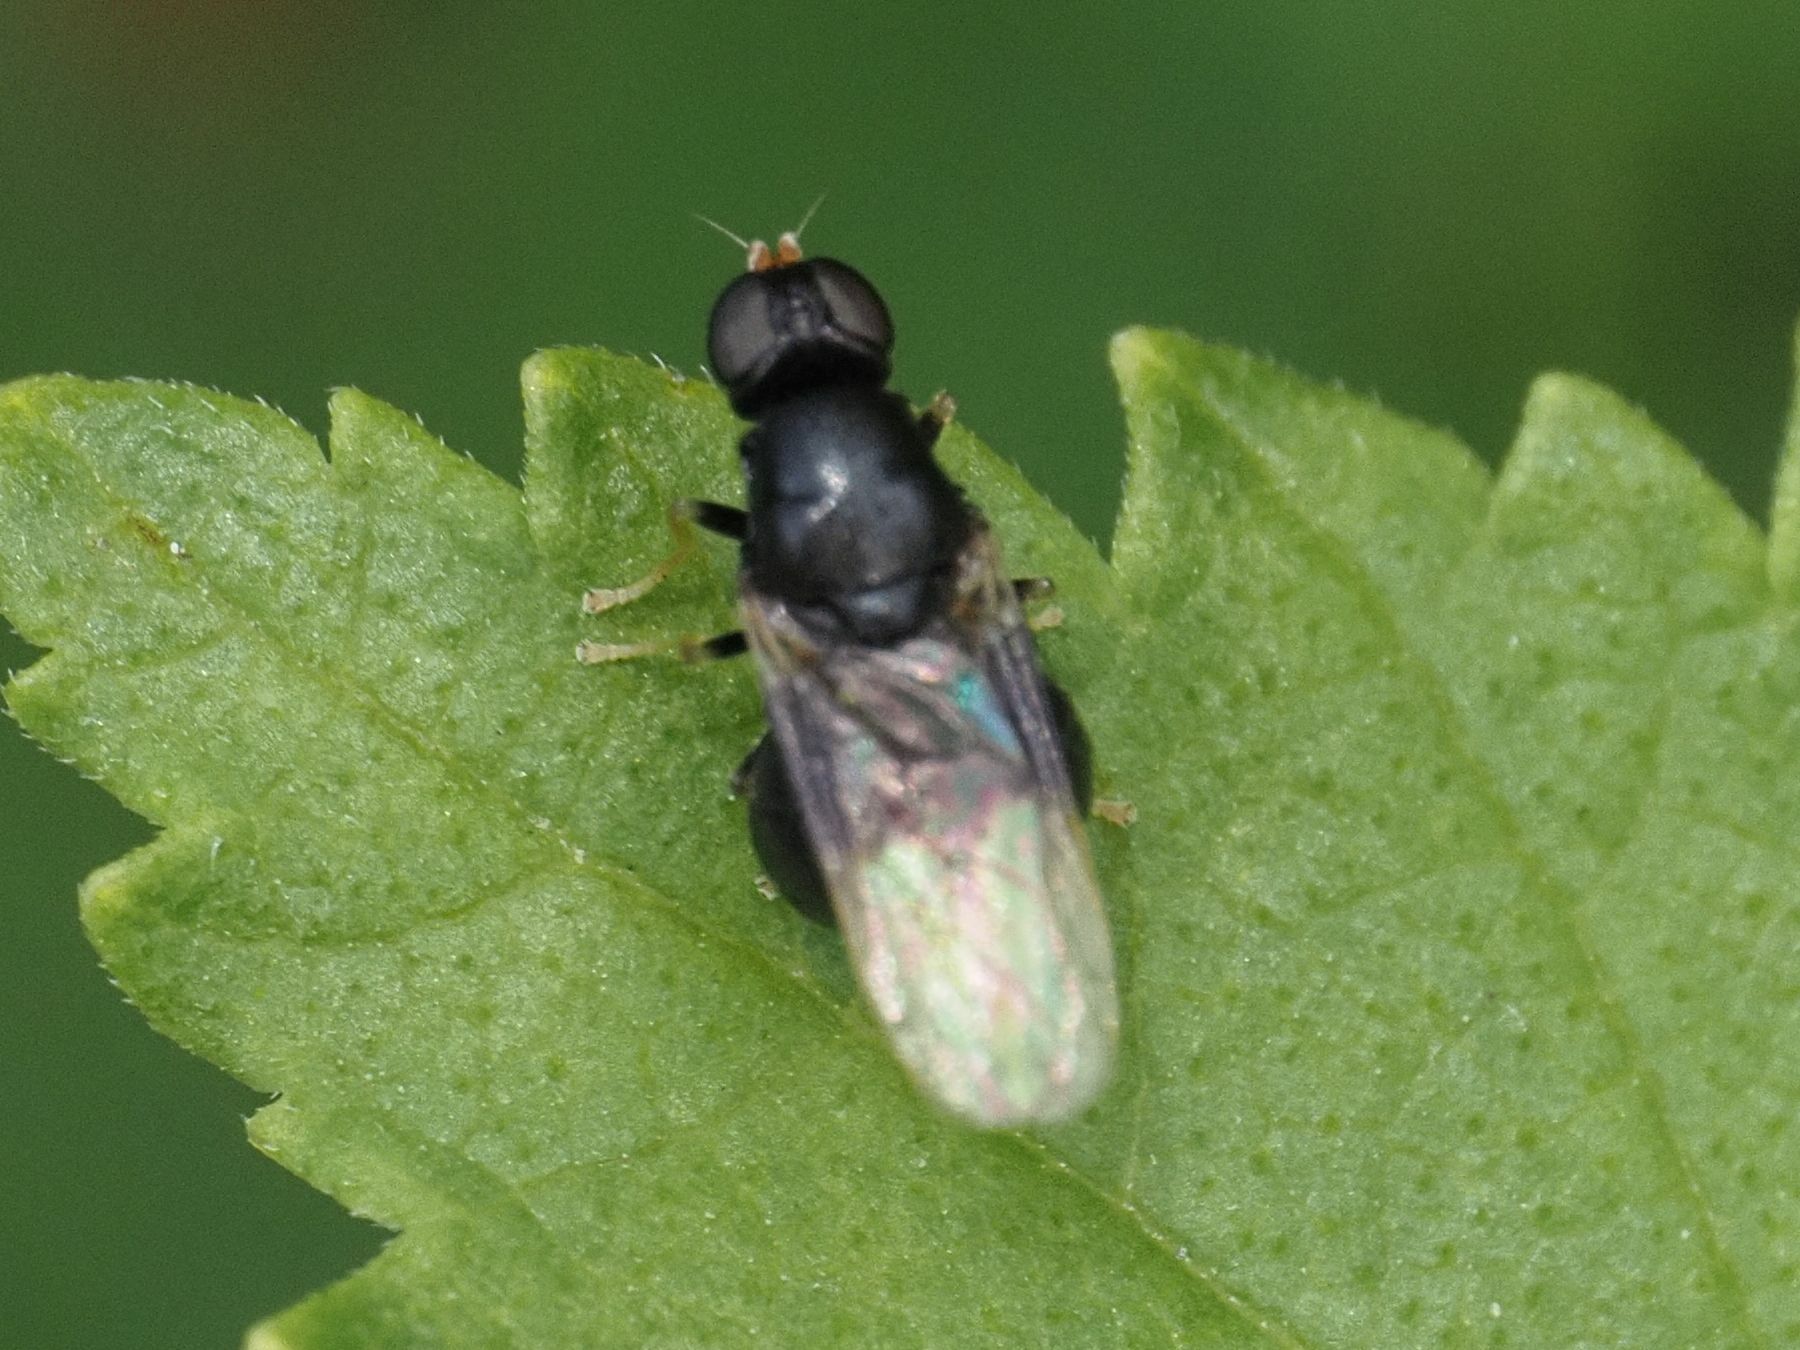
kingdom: Animalia
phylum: Arthropoda
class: Insecta
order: Diptera
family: Stratiomyidae
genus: Pachygaster
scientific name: Pachygaster atra
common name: Dark-winged black
